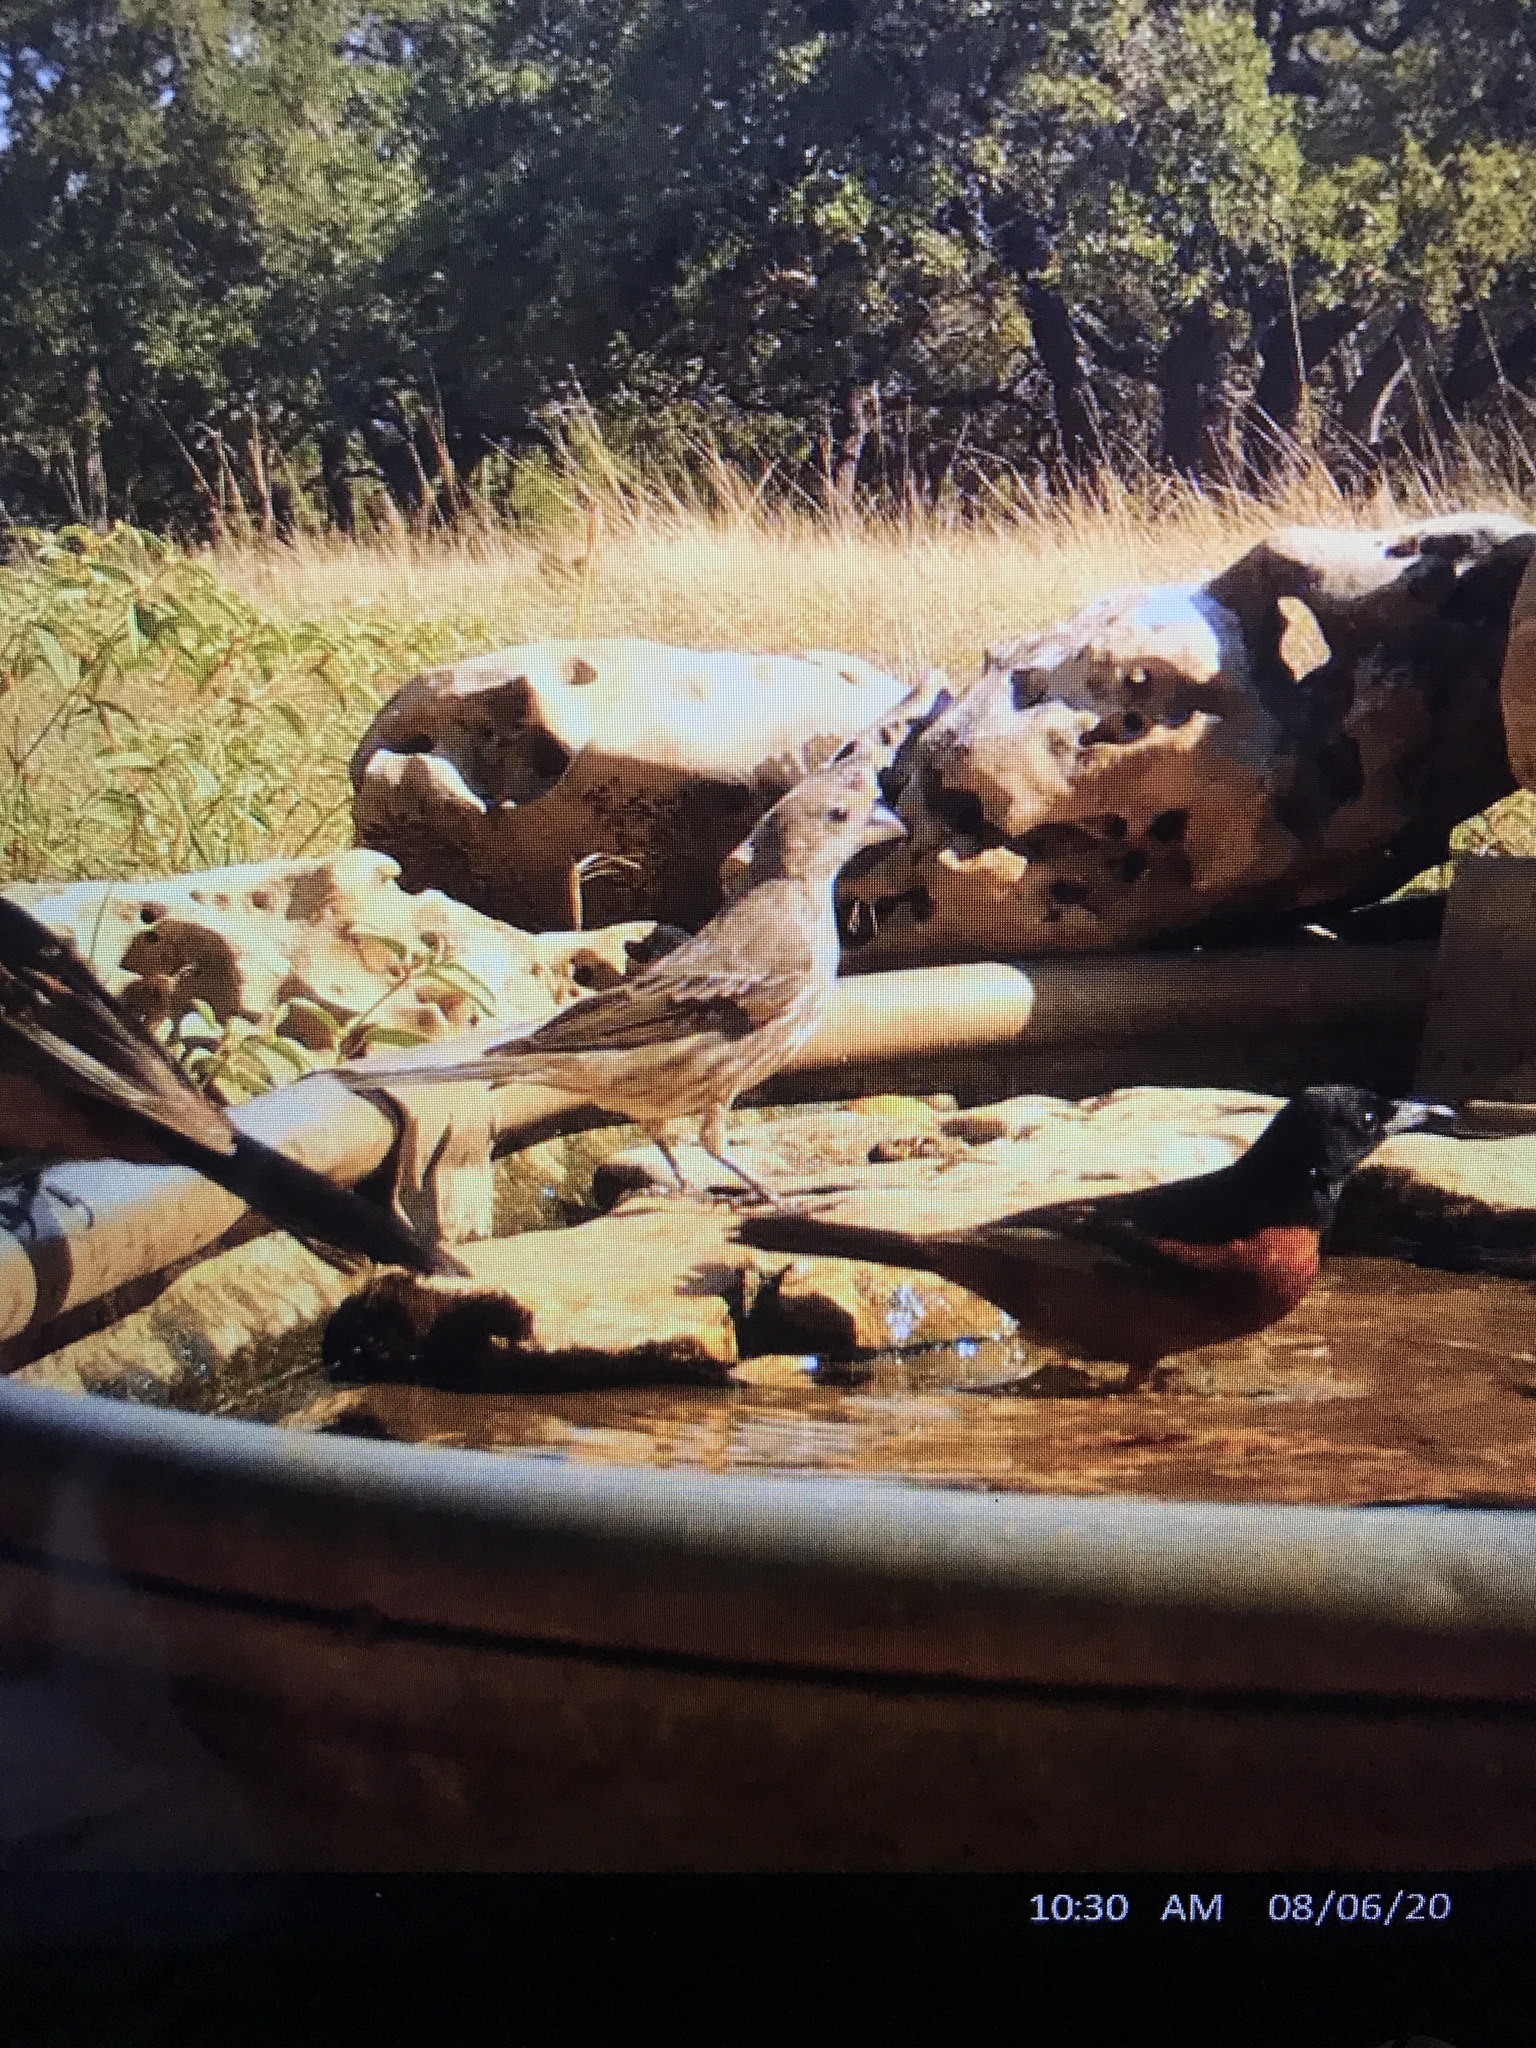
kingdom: Animalia
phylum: Chordata
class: Aves
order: Passeriformes
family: Fringillidae
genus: Haemorhous
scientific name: Haemorhous mexicanus
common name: House finch
